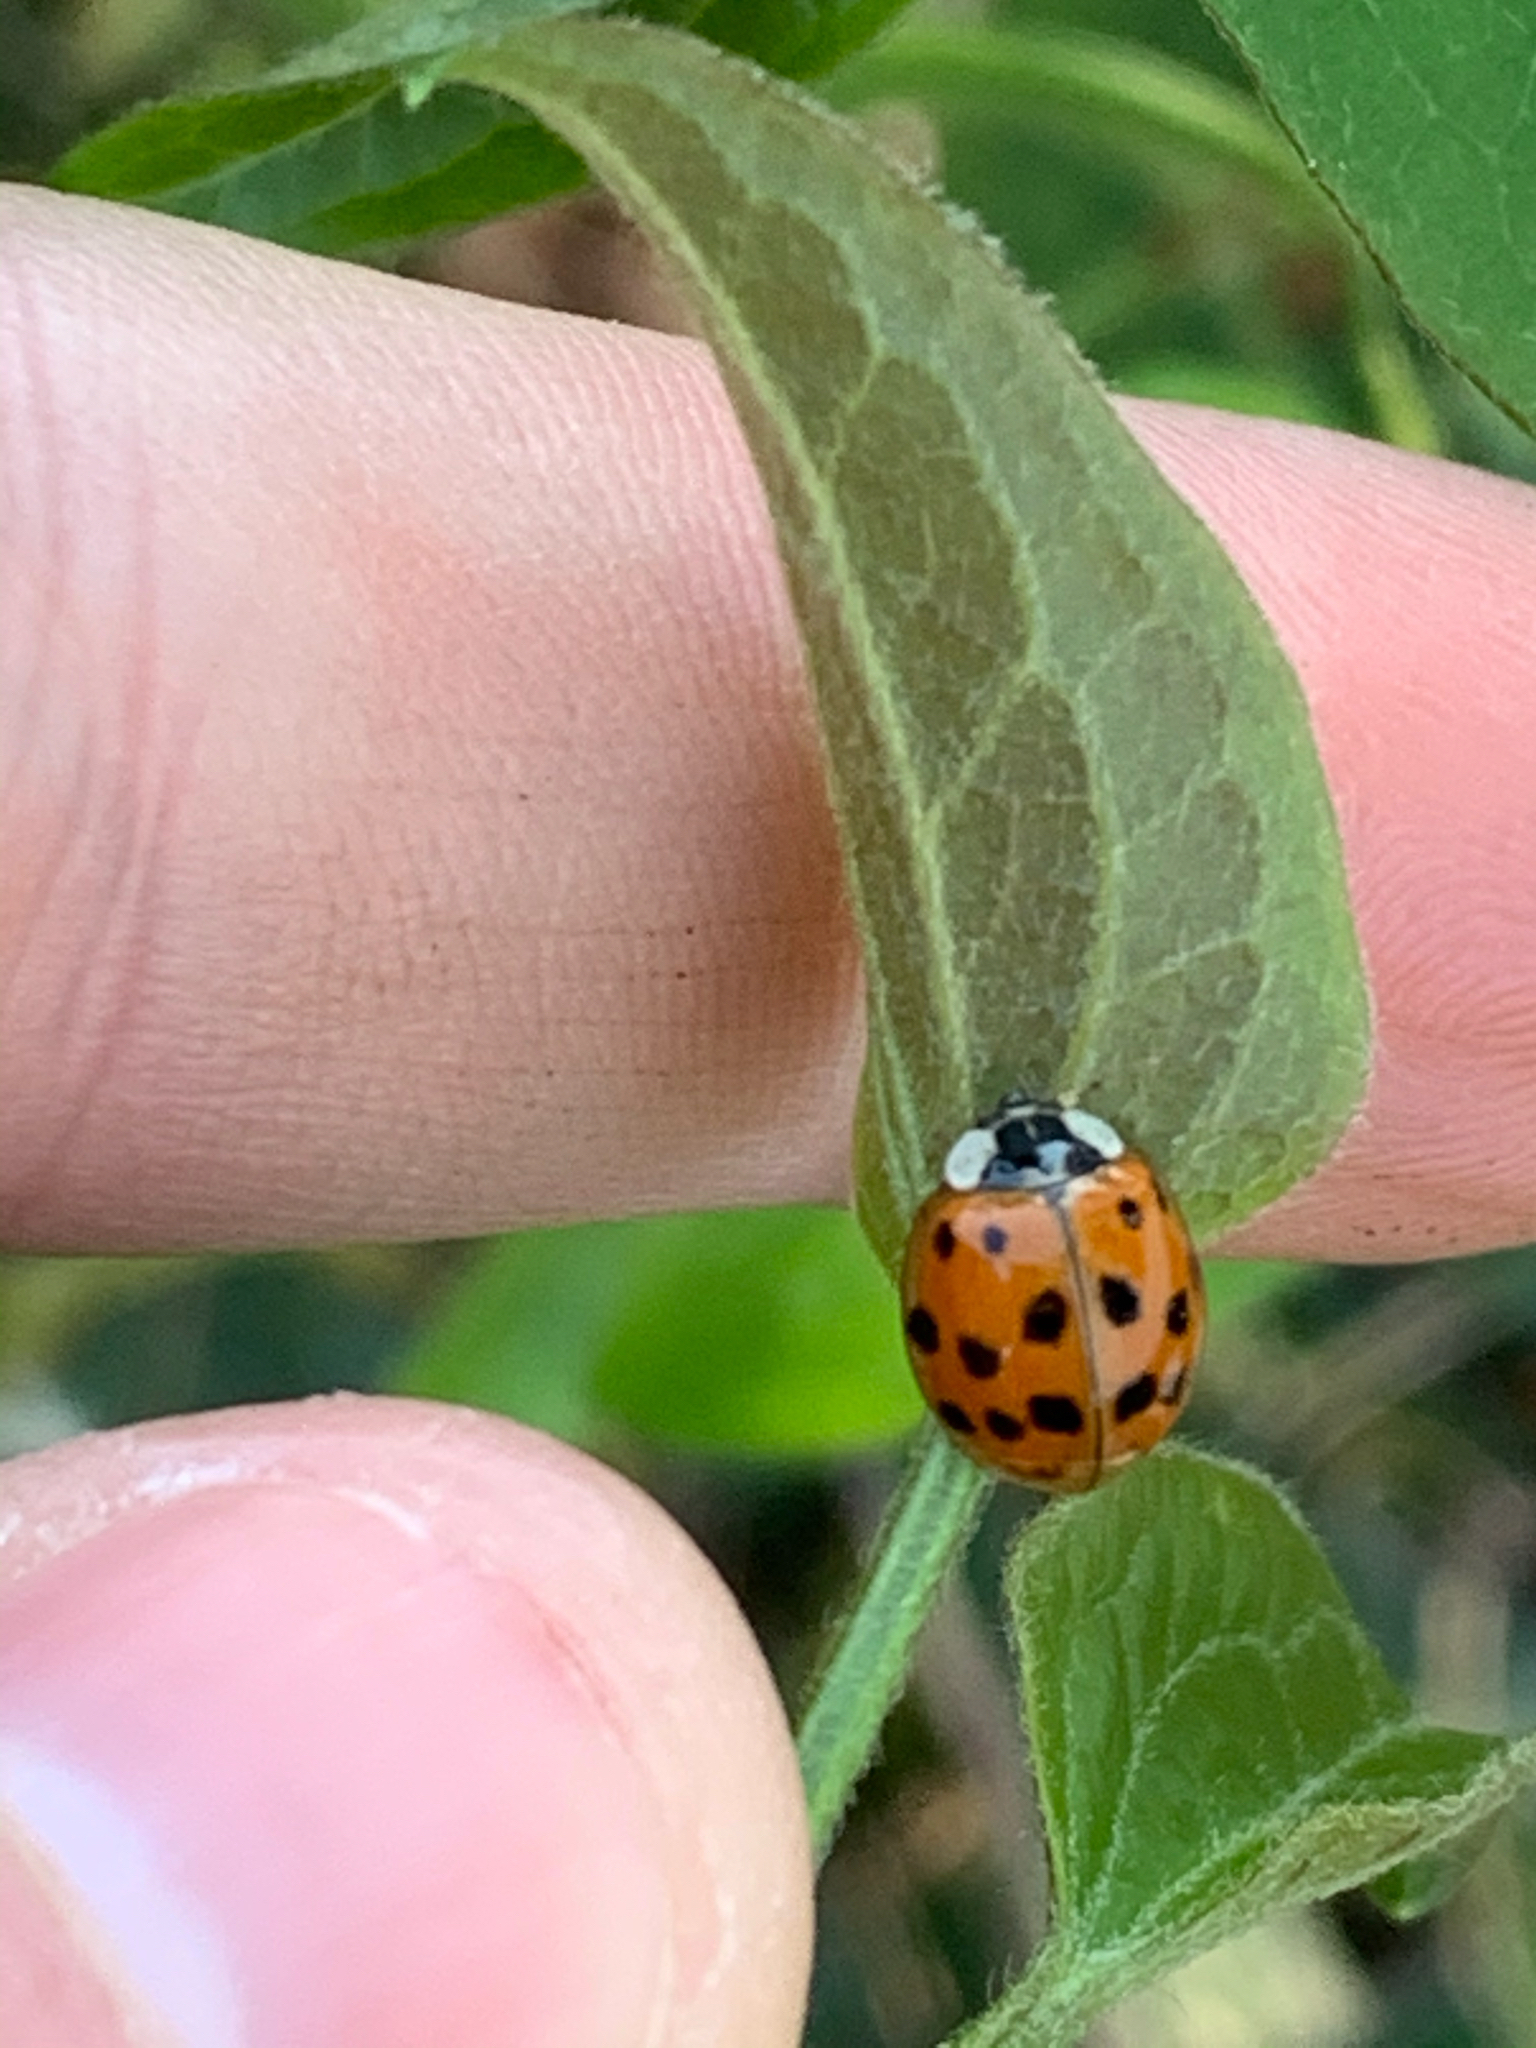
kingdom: Animalia
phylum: Arthropoda
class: Insecta
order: Coleoptera
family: Coccinellidae
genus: Harmonia
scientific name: Harmonia axyridis
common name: Harlequin ladybird
